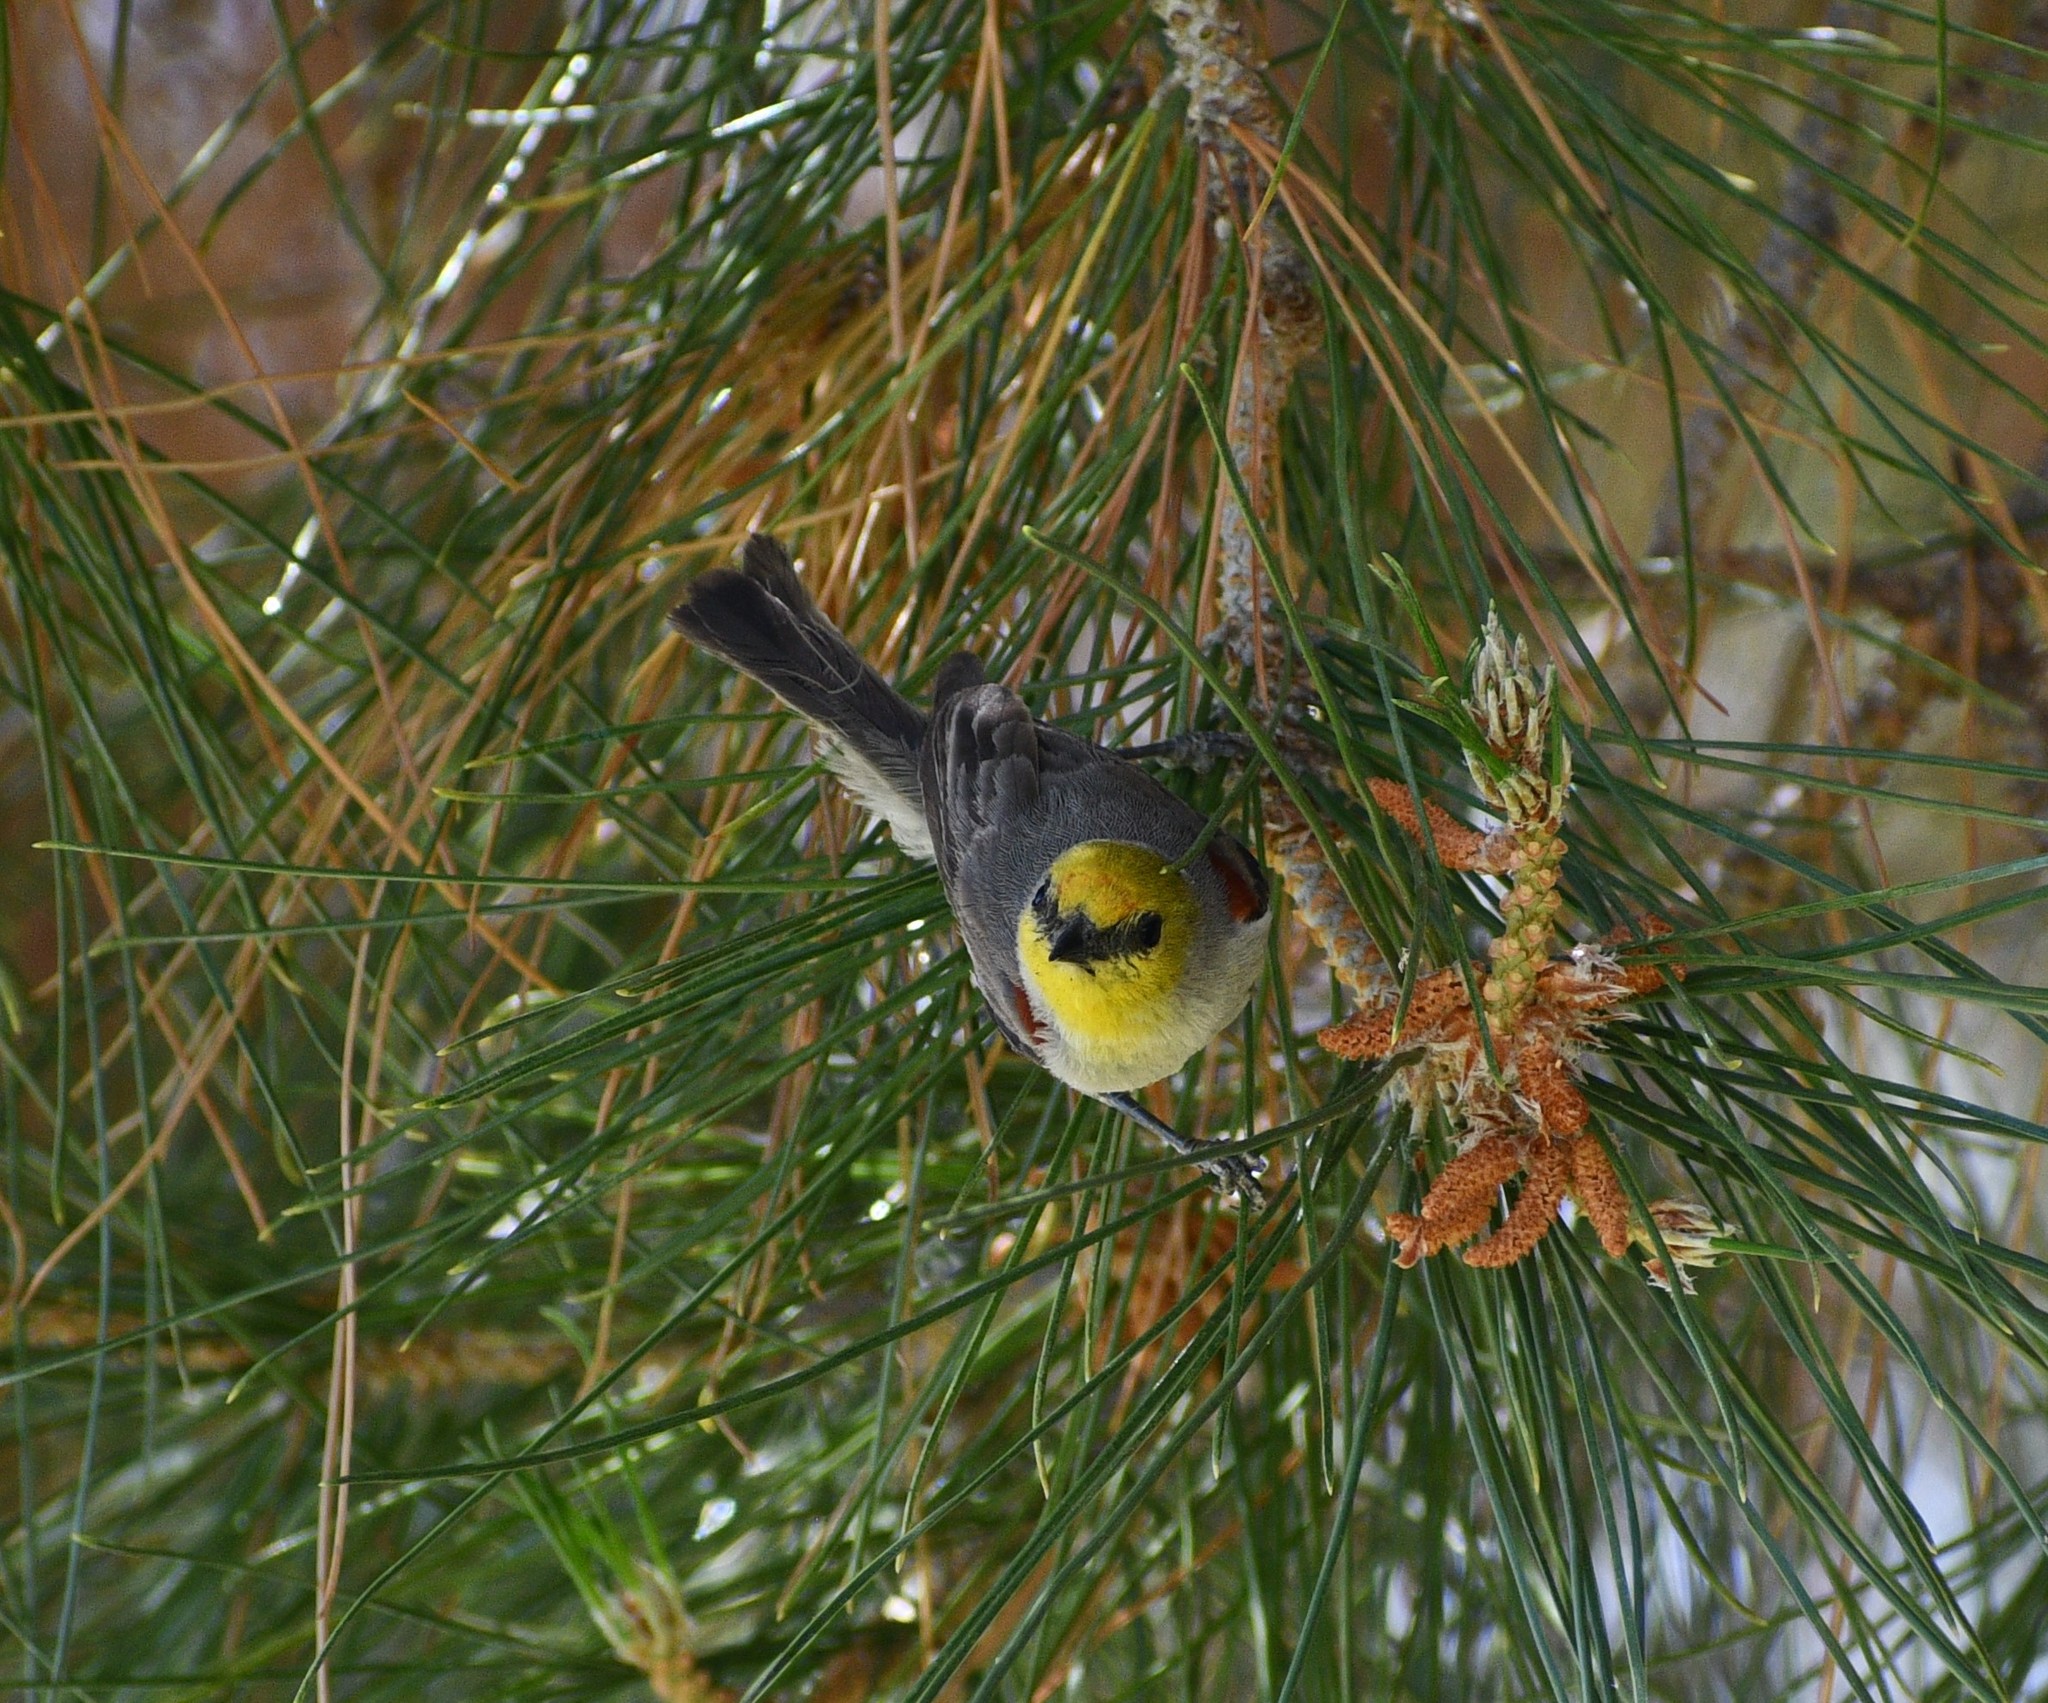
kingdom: Animalia
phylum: Chordata
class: Aves
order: Passeriformes
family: Remizidae
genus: Auriparus
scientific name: Auriparus flaviceps
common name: Verdin
